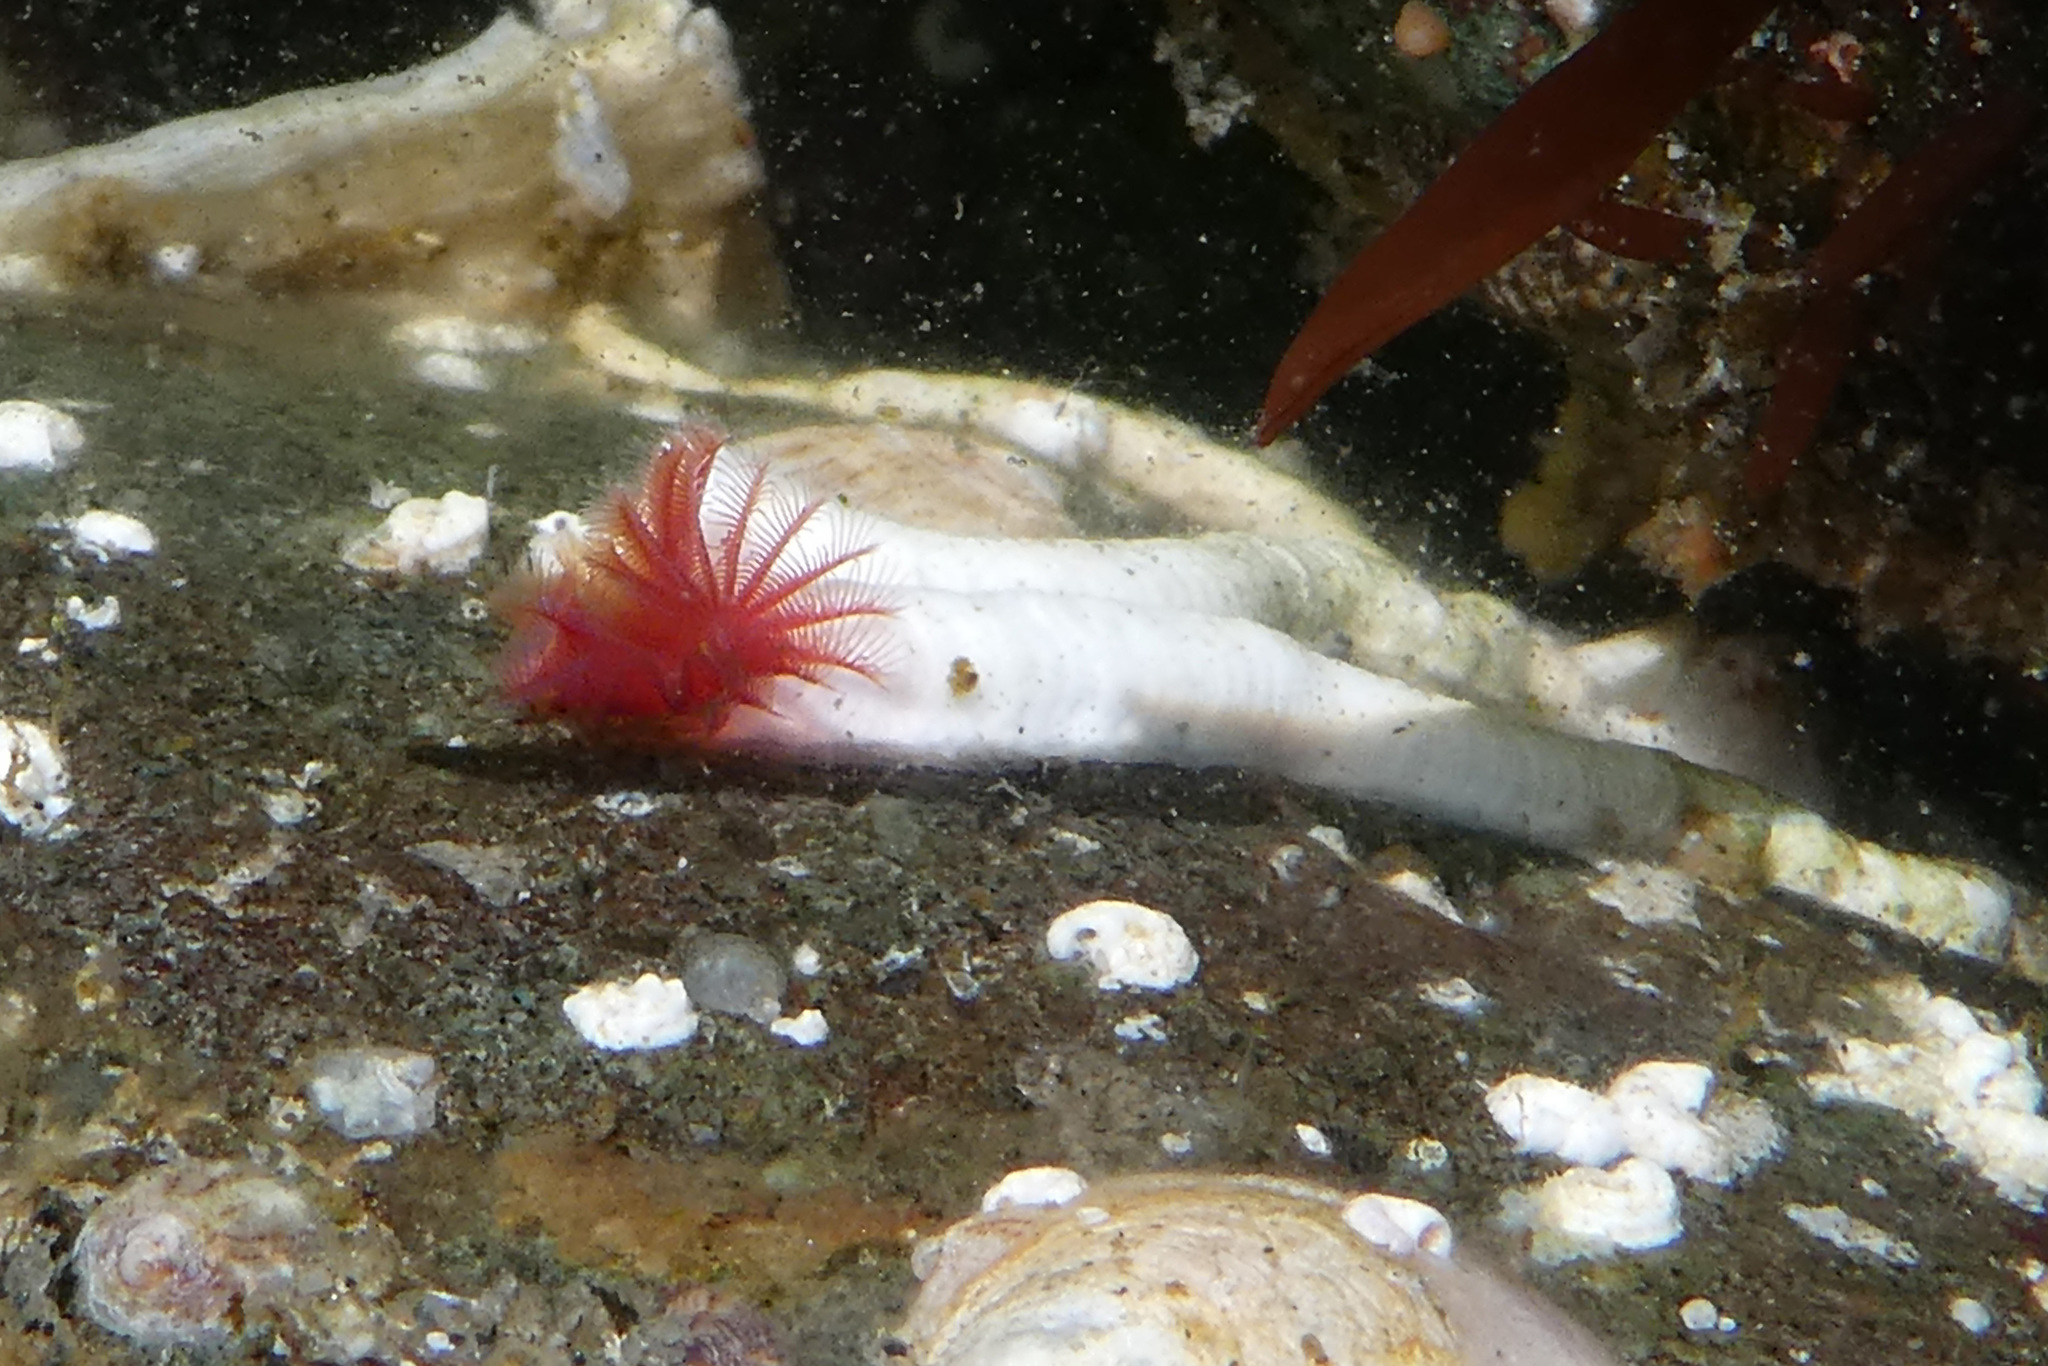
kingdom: Animalia
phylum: Annelida
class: Polychaeta
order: Sabellida
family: Serpulidae
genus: Serpula
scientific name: Serpula columbiana
